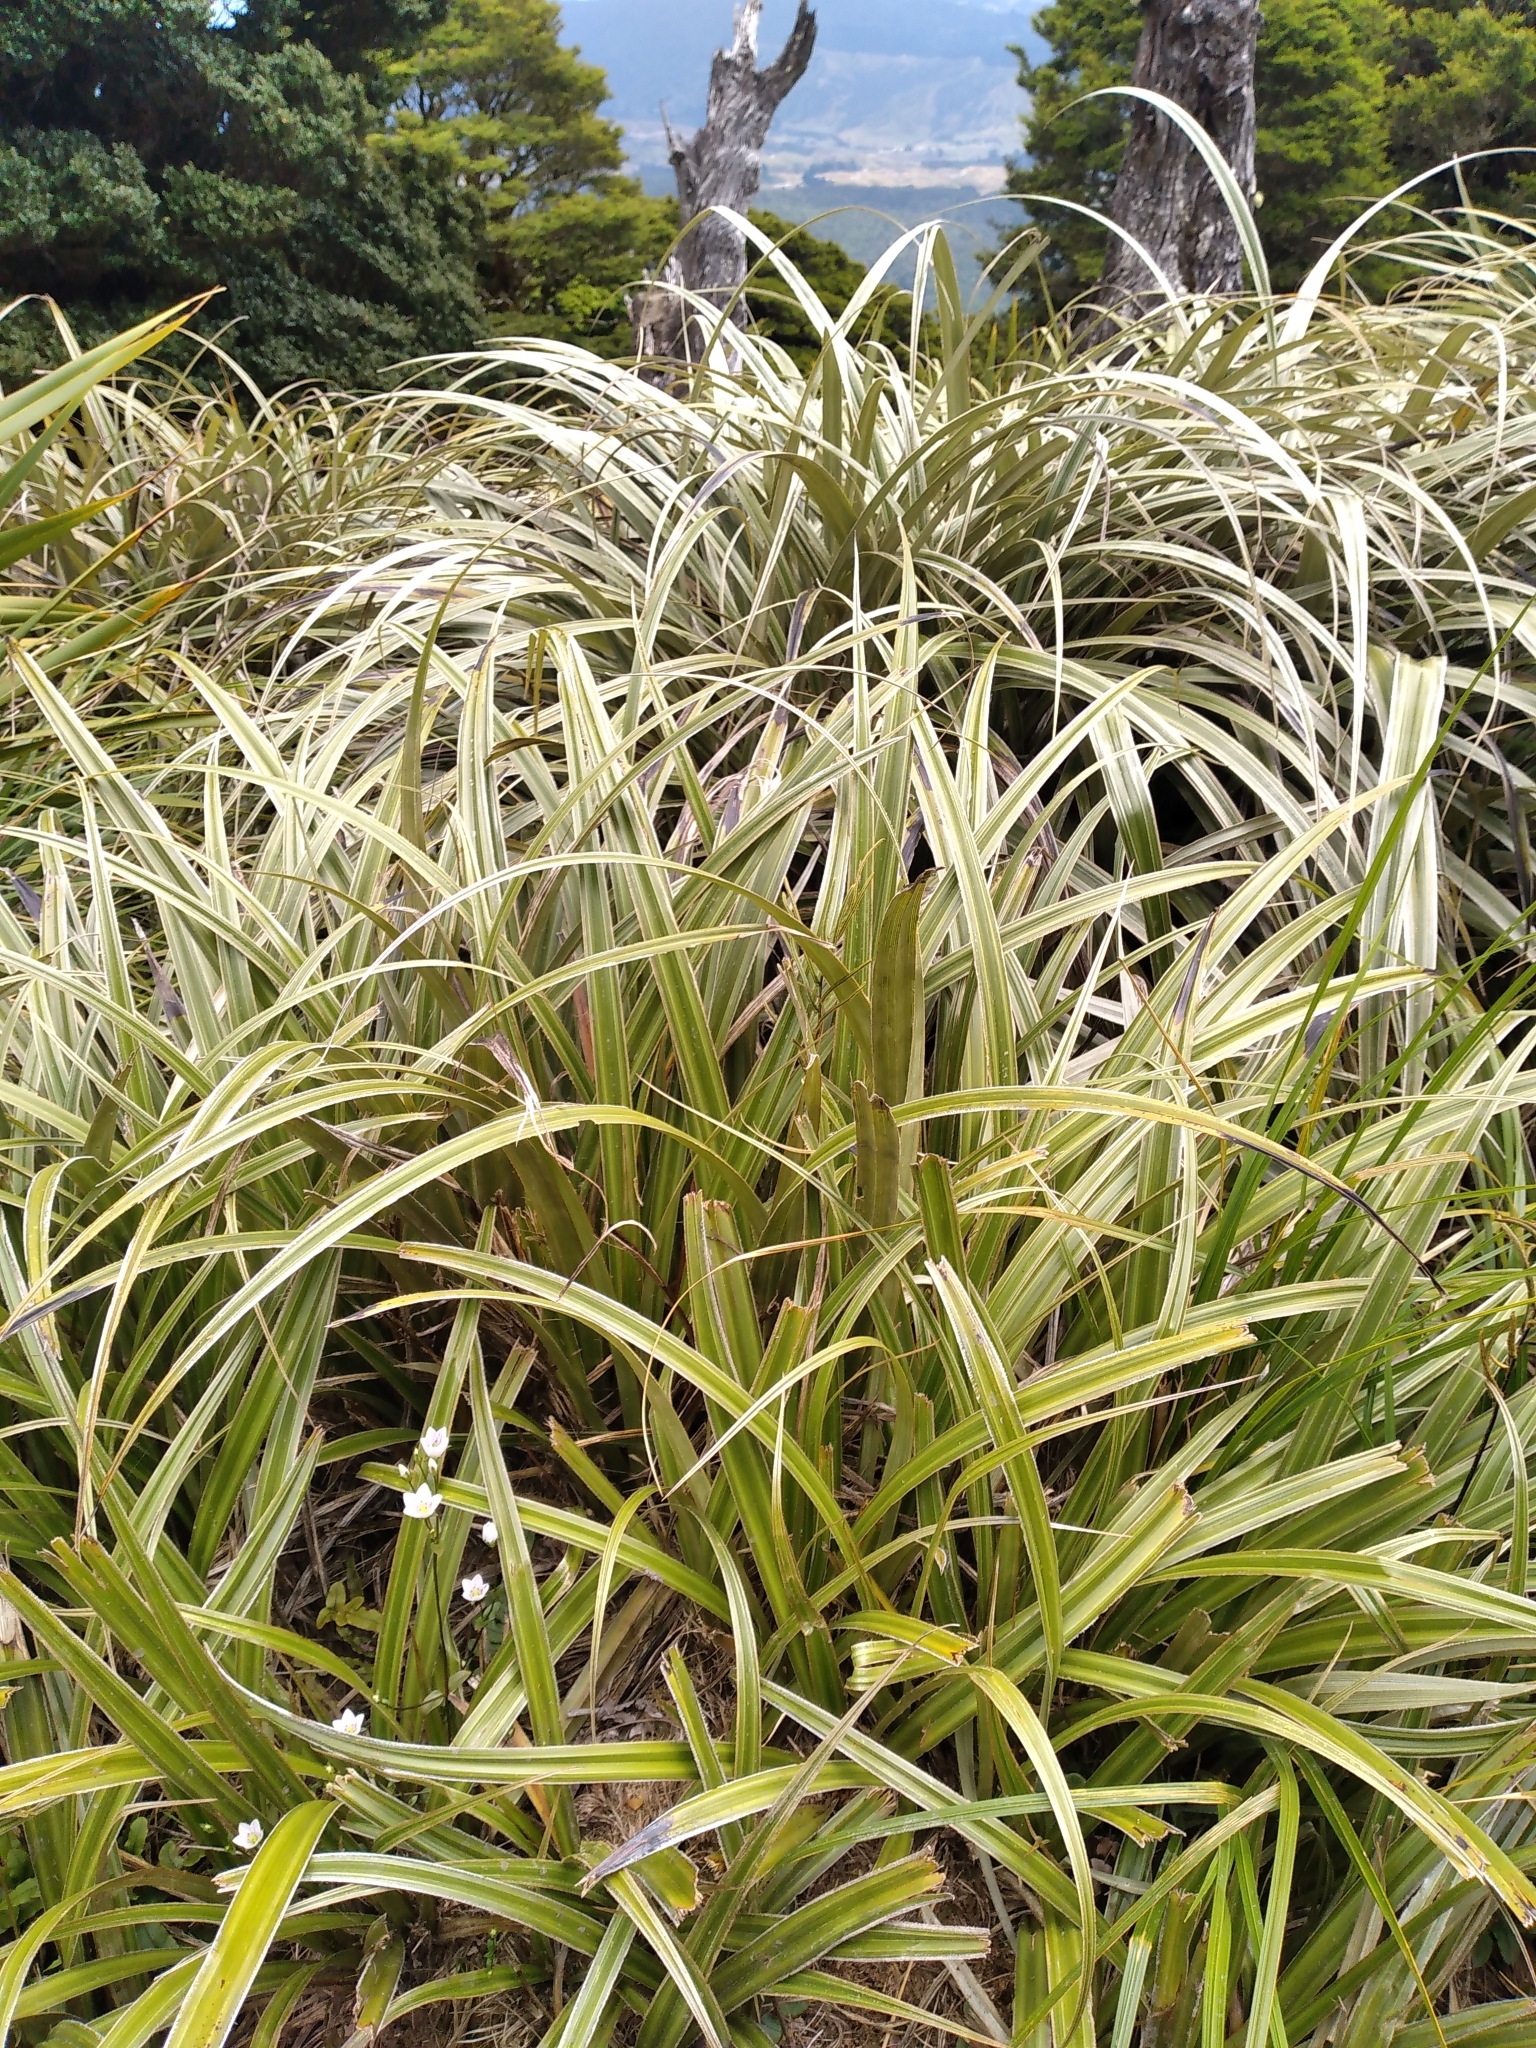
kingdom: Plantae
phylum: Tracheophyta
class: Liliopsida
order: Asparagales
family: Asteliaceae
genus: Astelia
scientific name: Astelia nervosa
